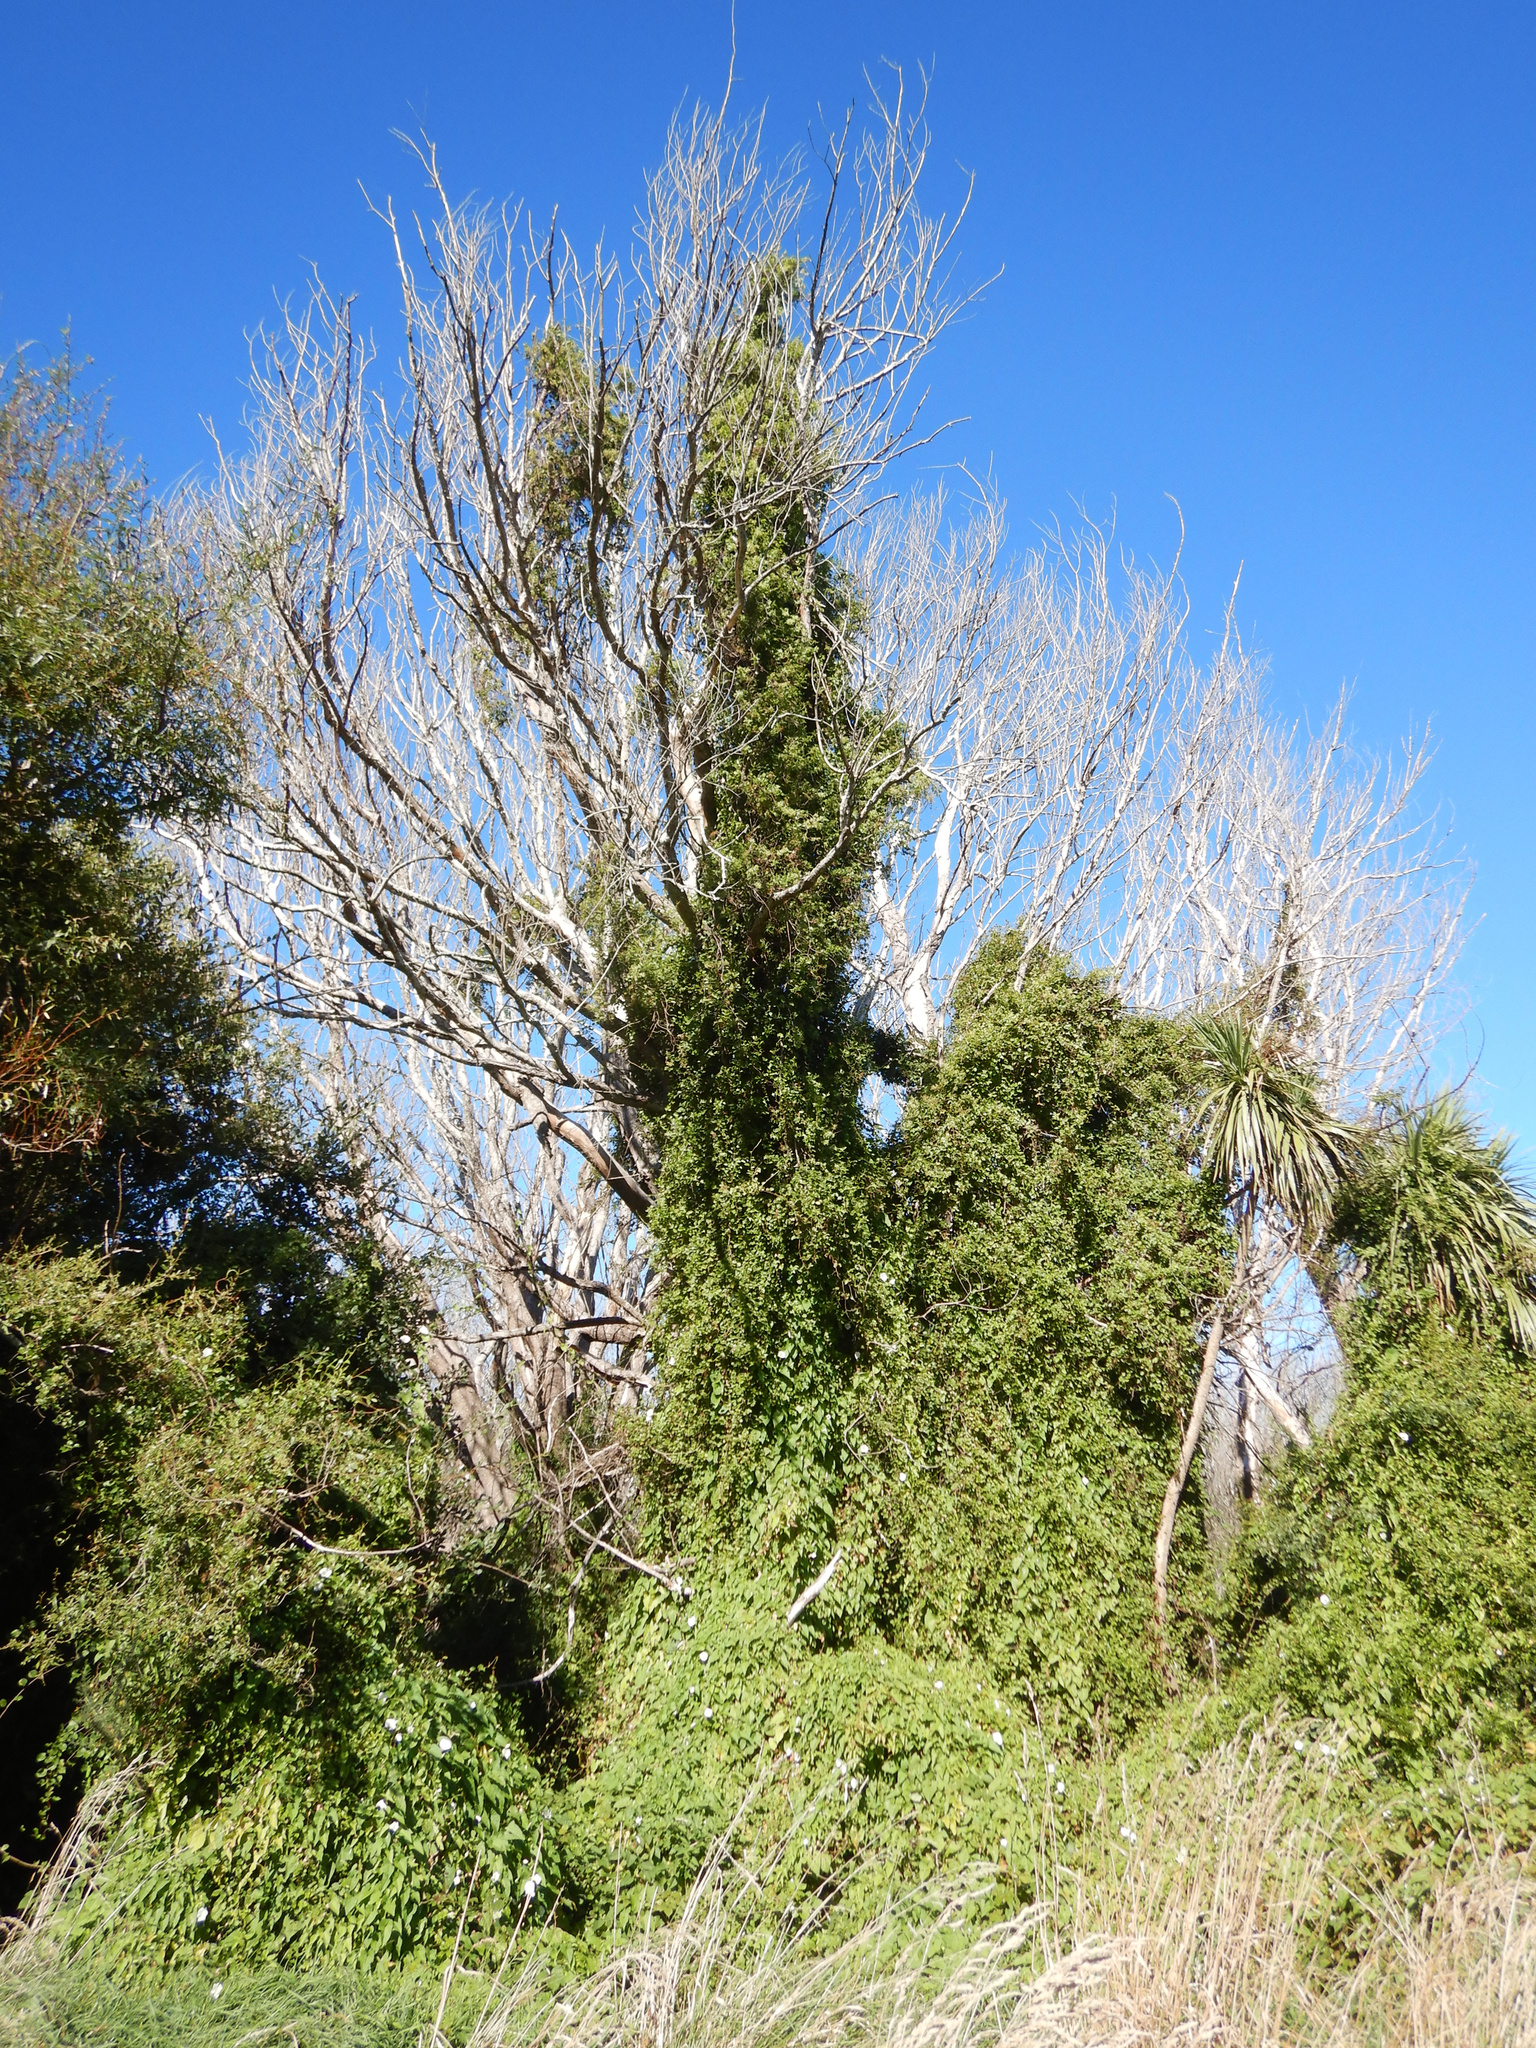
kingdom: Plantae
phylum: Tracheophyta
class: Magnoliopsida
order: Caryophyllales
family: Polygonaceae
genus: Muehlenbeckia
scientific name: Muehlenbeckia australis
